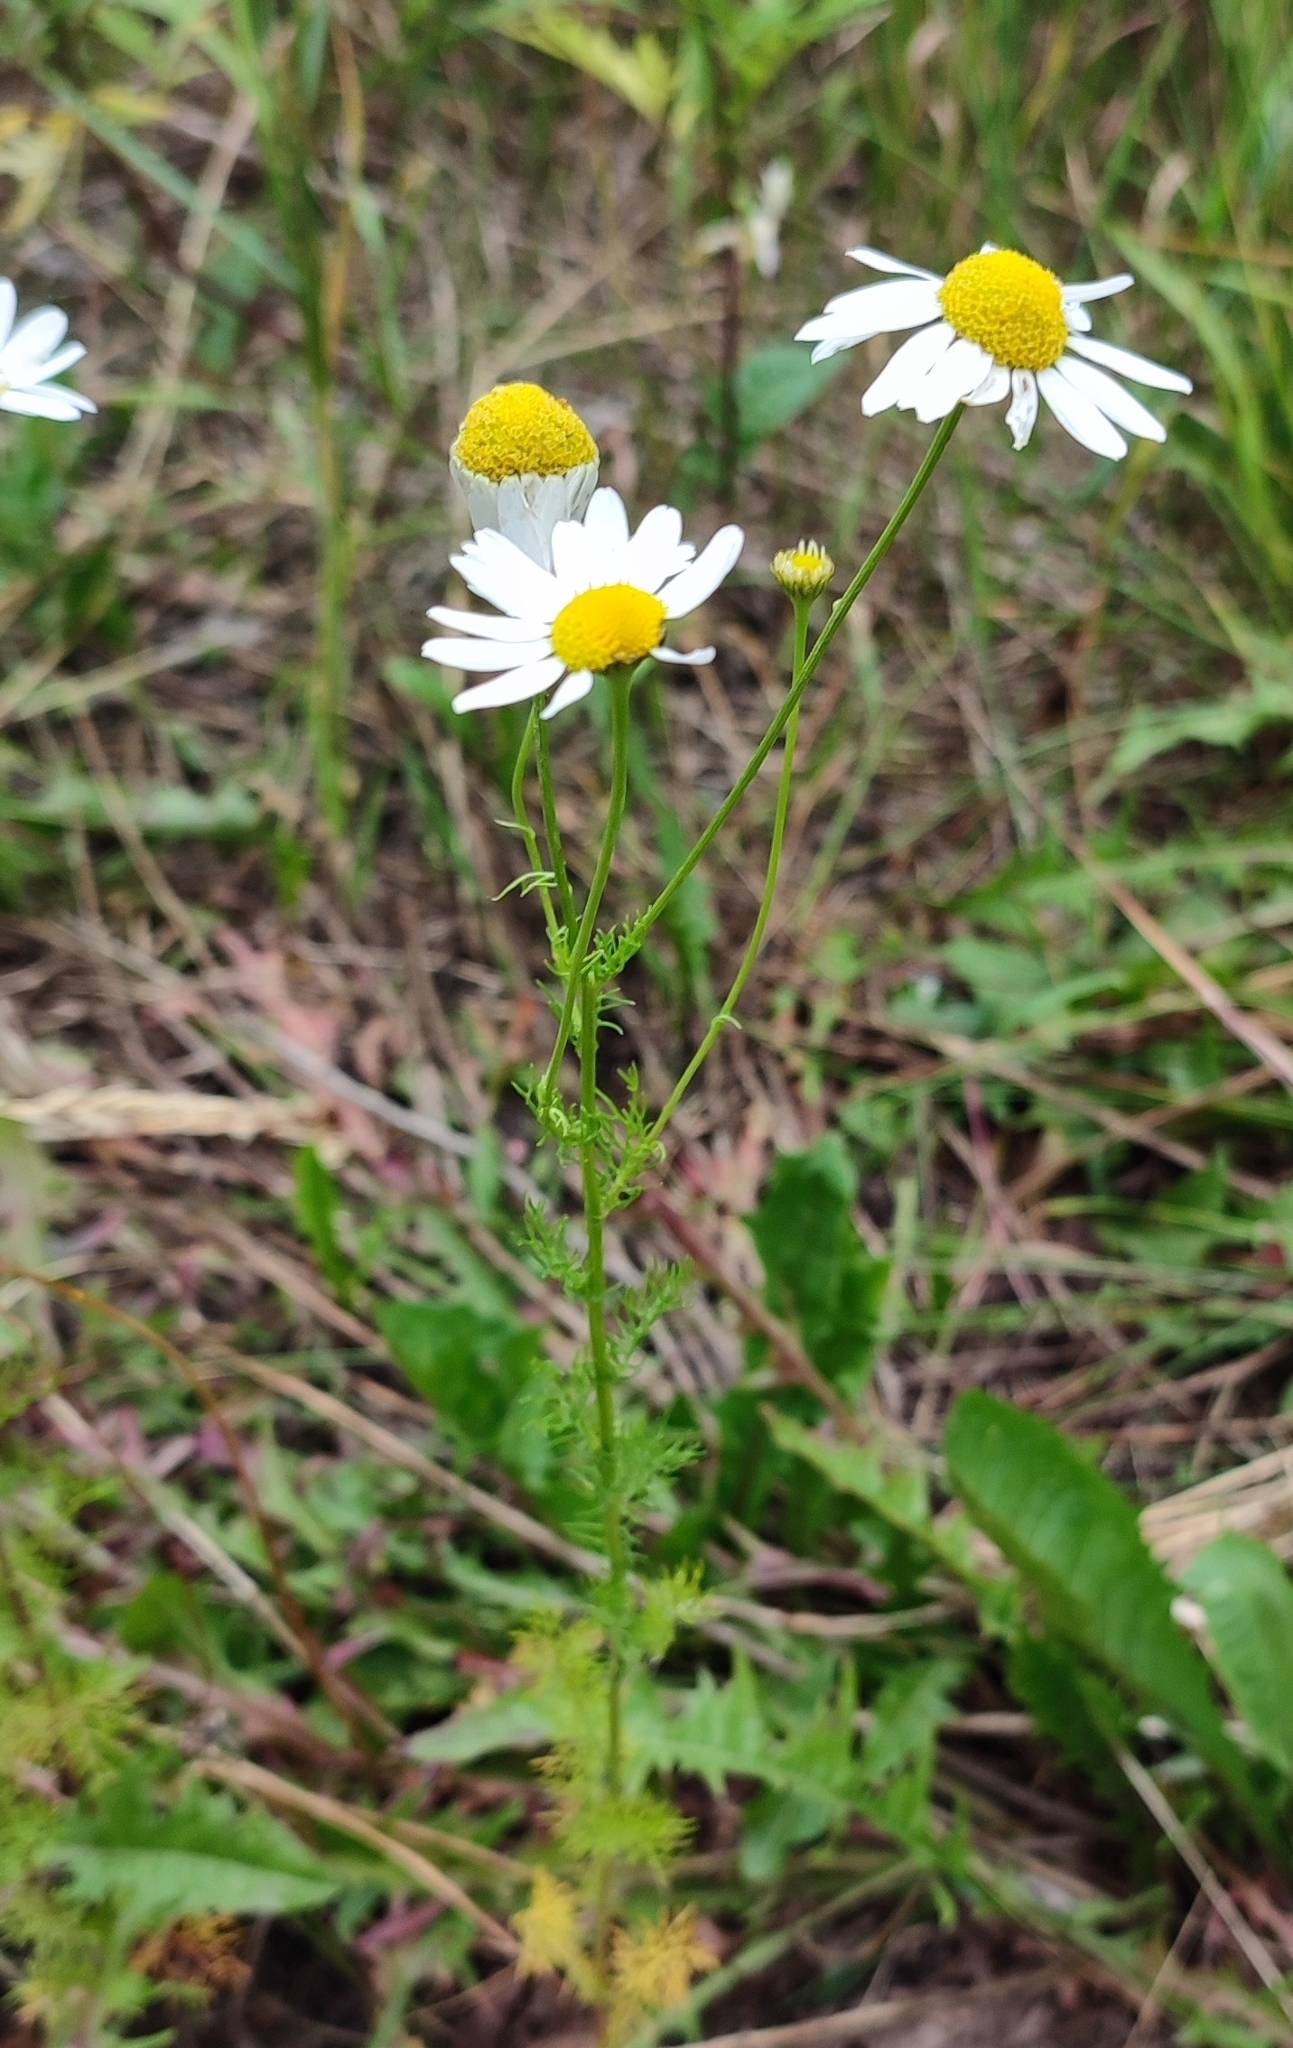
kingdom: Plantae
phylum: Tracheophyta
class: Magnoliopsida
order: Asterales
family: Asteraceae
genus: Tripleurospermum
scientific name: Tripleurospermum inodorum
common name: Scentless mayweed
